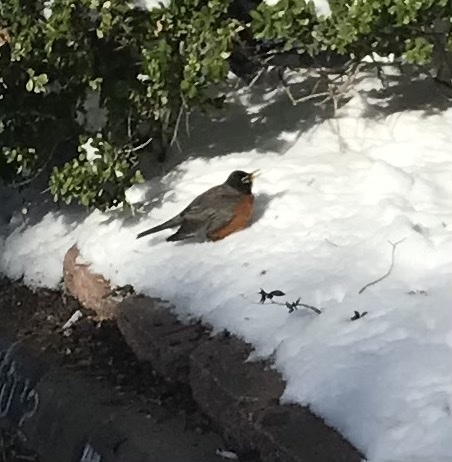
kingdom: Animalia
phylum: Chordata
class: Aves
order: Passeriformes
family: Turdidae
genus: Turdus
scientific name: Turdus migratorius
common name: American robin
